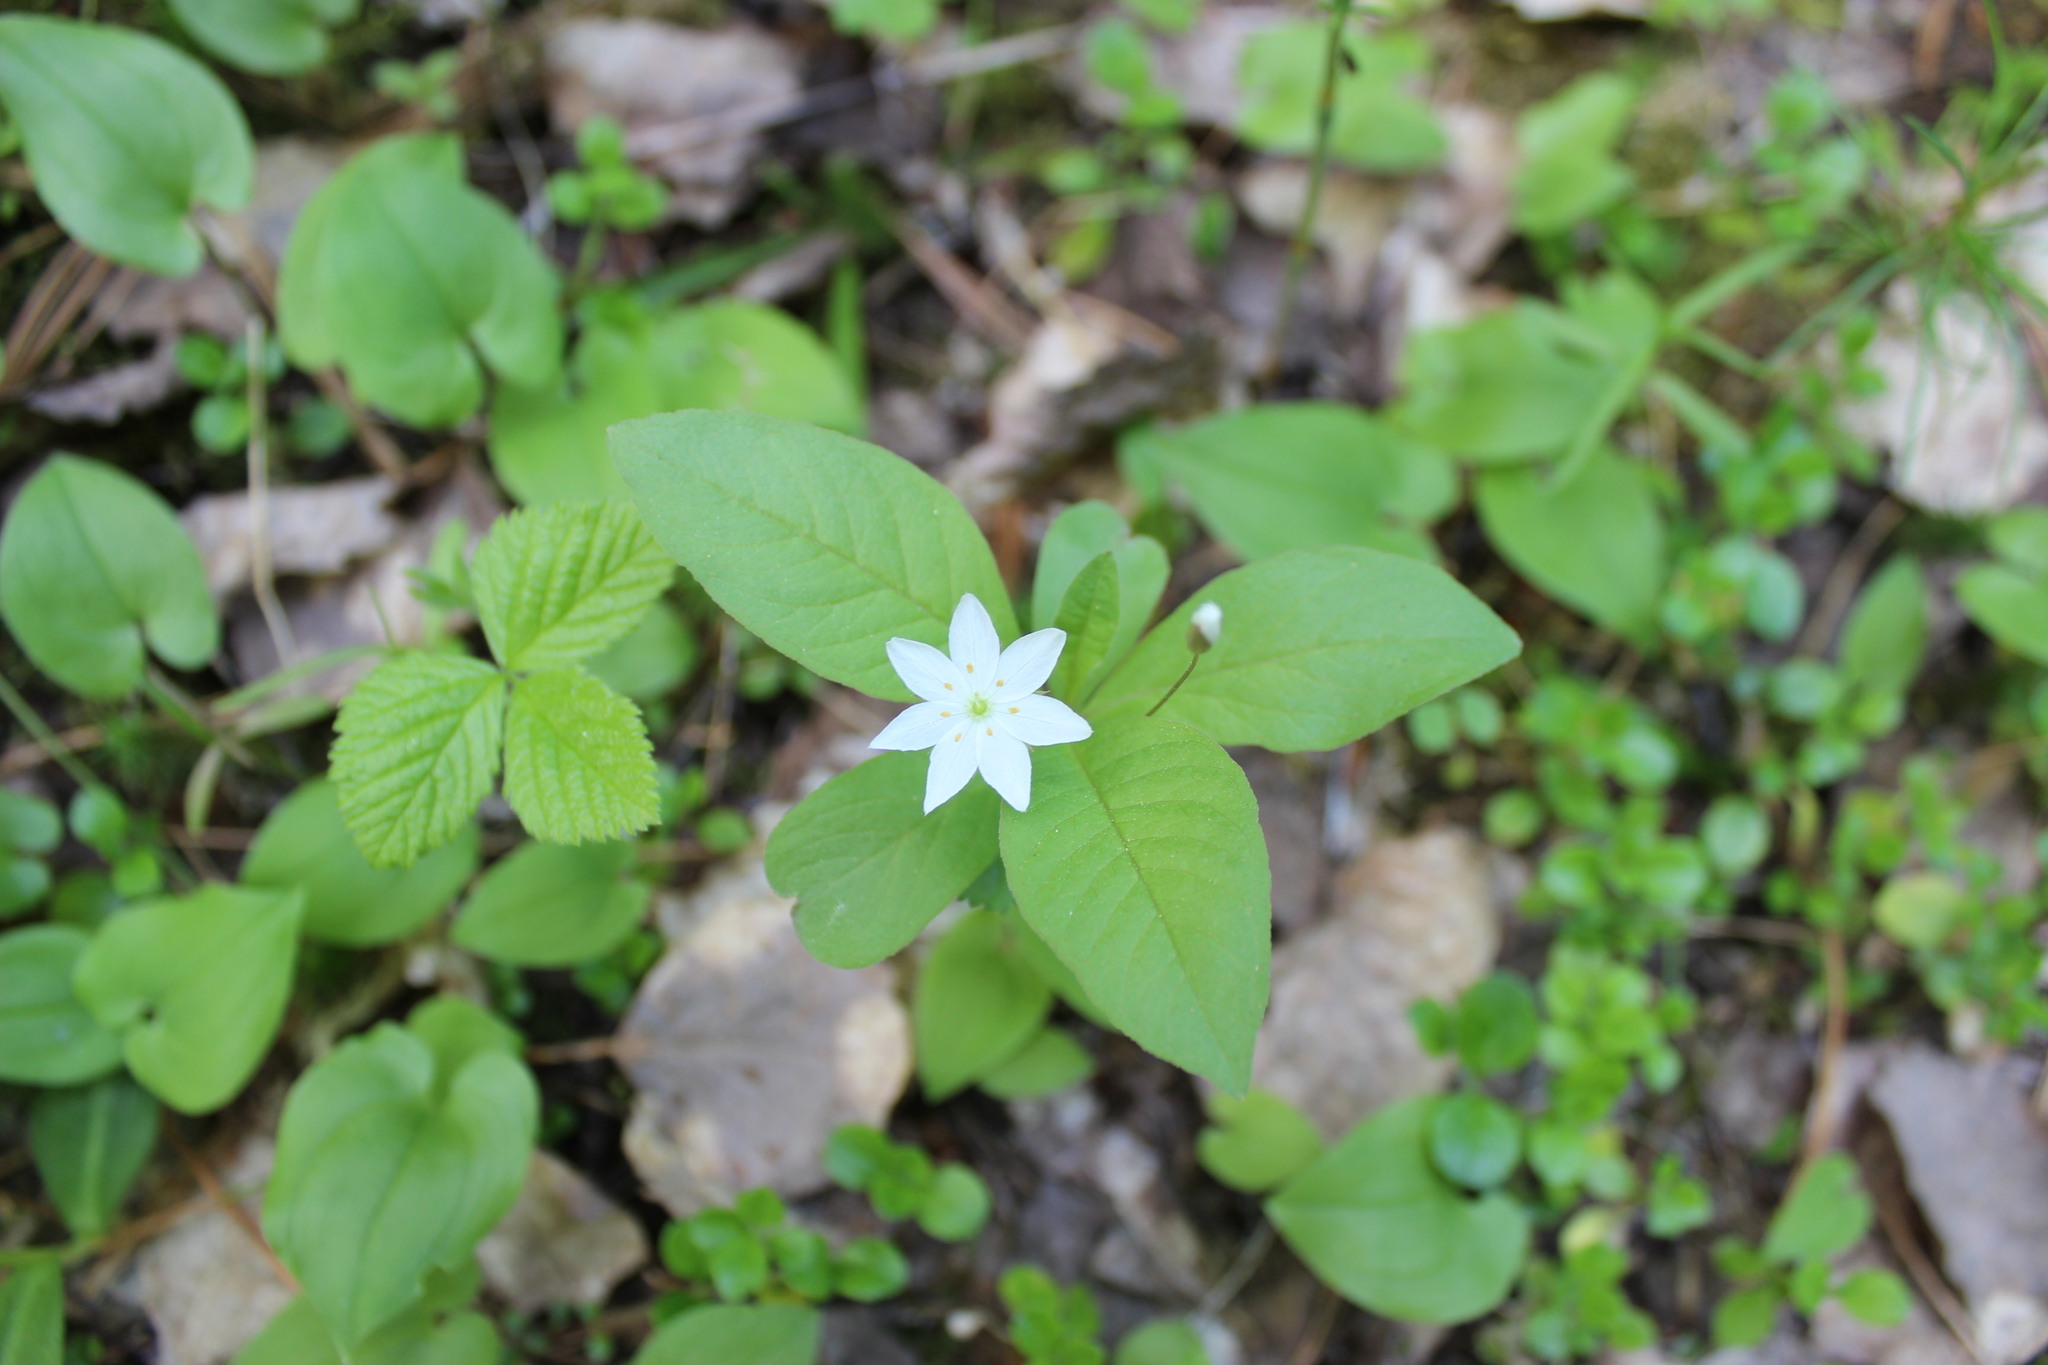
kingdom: Plantae
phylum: Tracheophyta
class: Magnoliopsida
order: Ericales
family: Primulaceae
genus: Lysimachia
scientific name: Lysimachia europaea
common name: Arctic starflower
